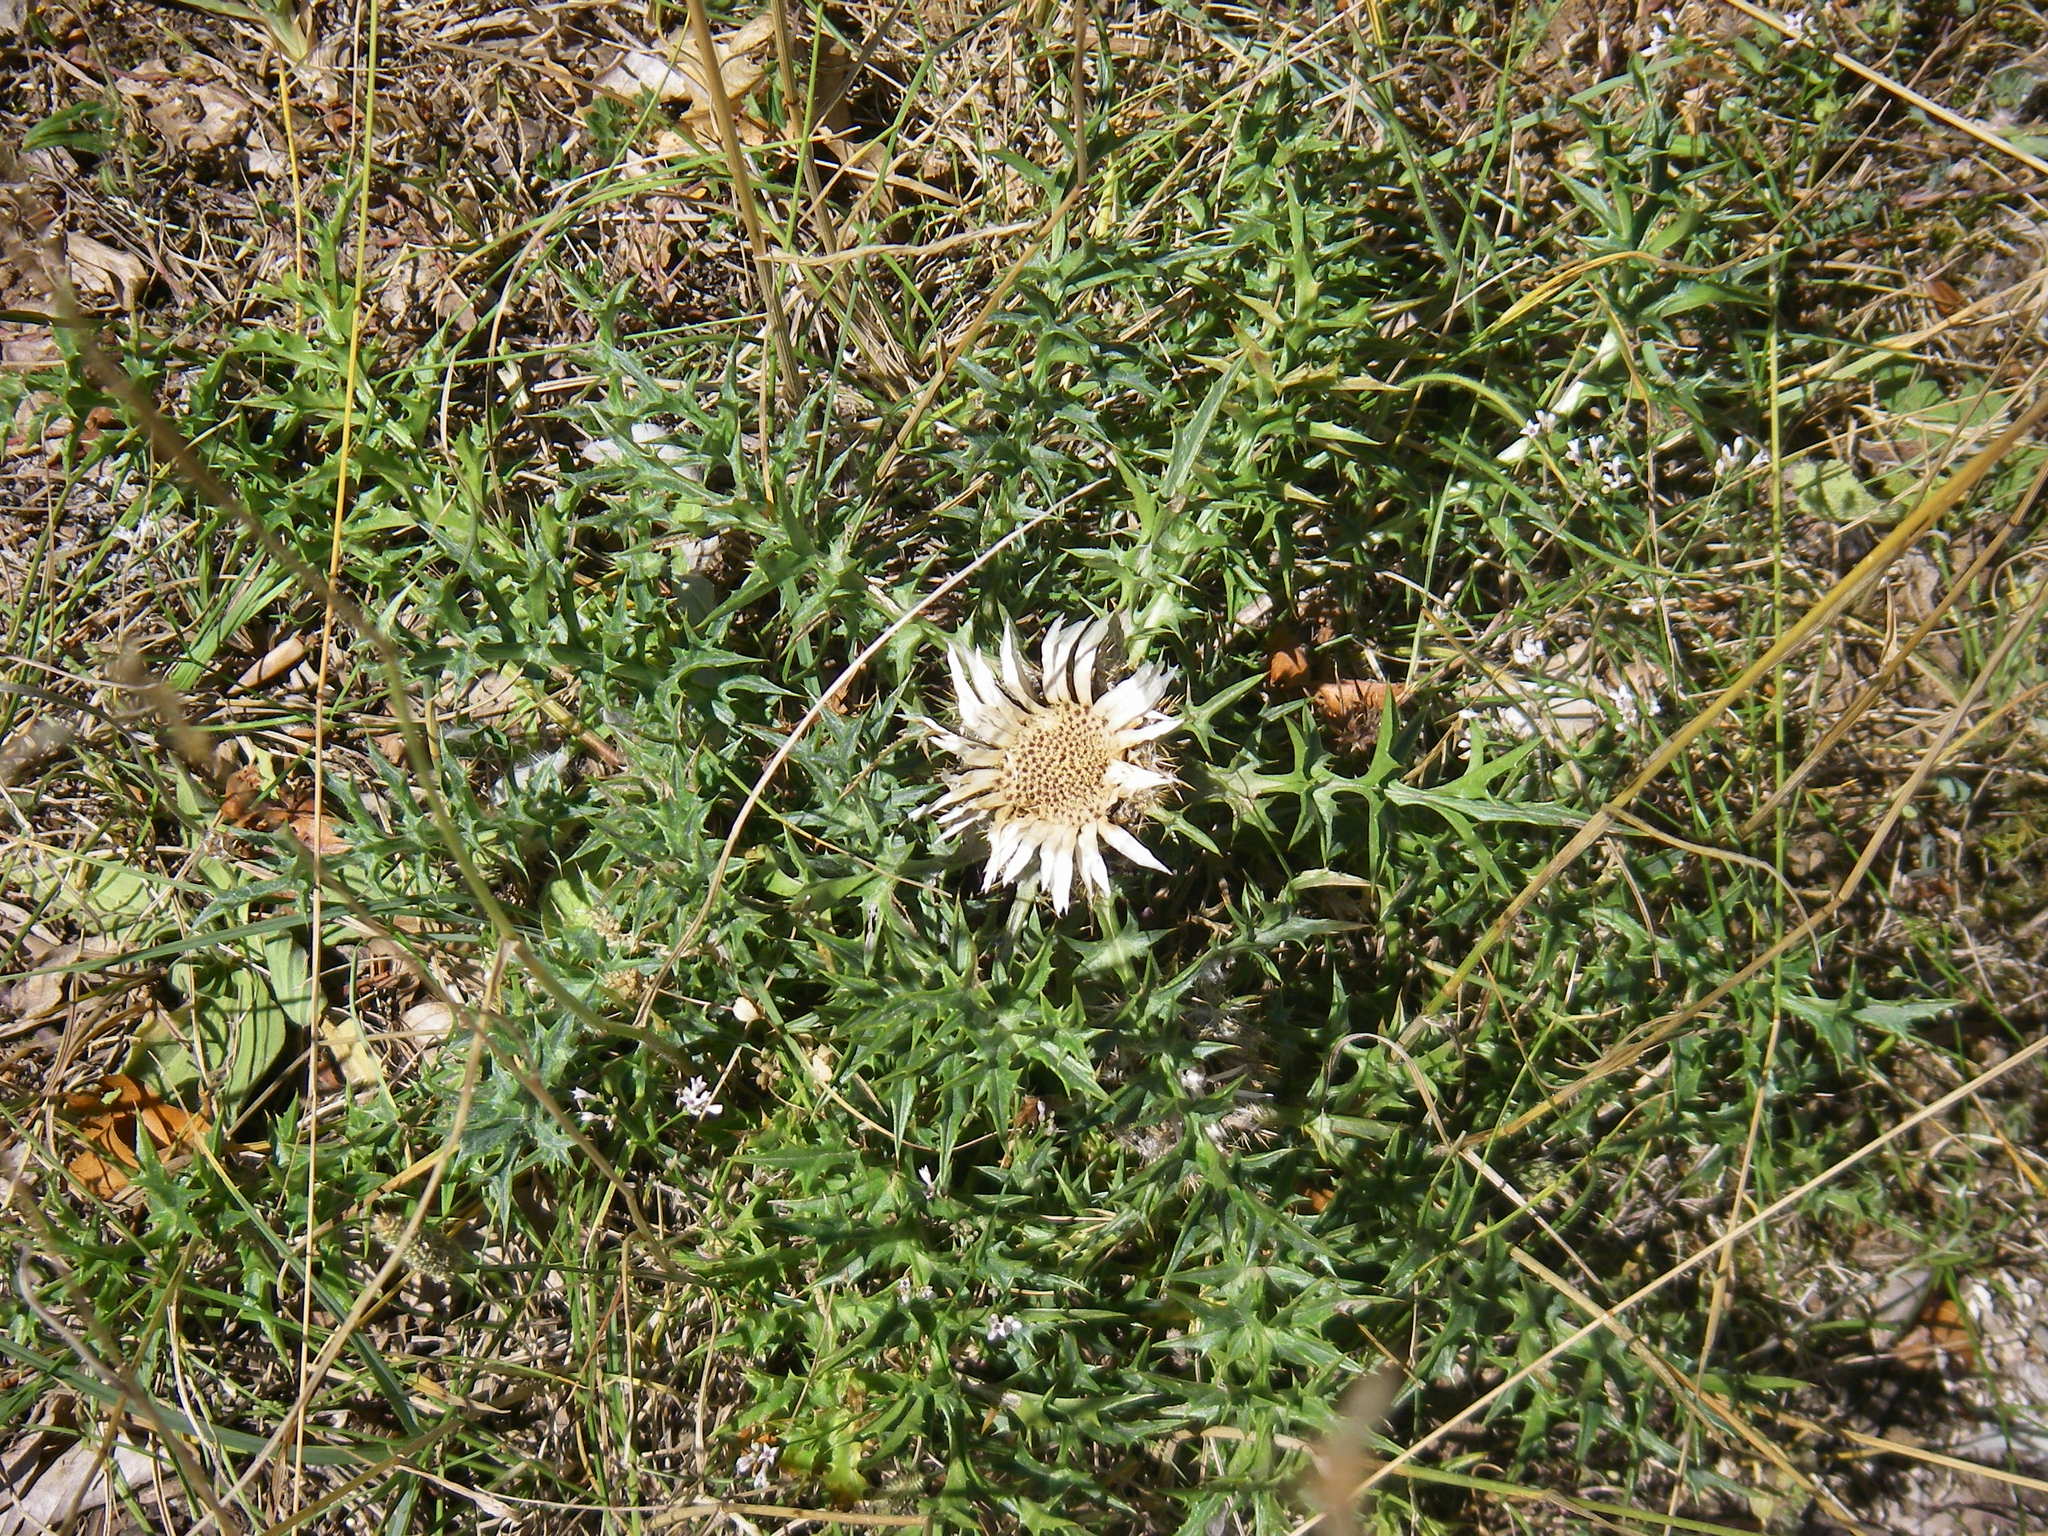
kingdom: Plantae
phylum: Tracheophyta
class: Magnoliopsida
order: Asterales
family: Asteraceae
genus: Carlina
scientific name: Carlina acaulis
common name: Stemless carline thistle
